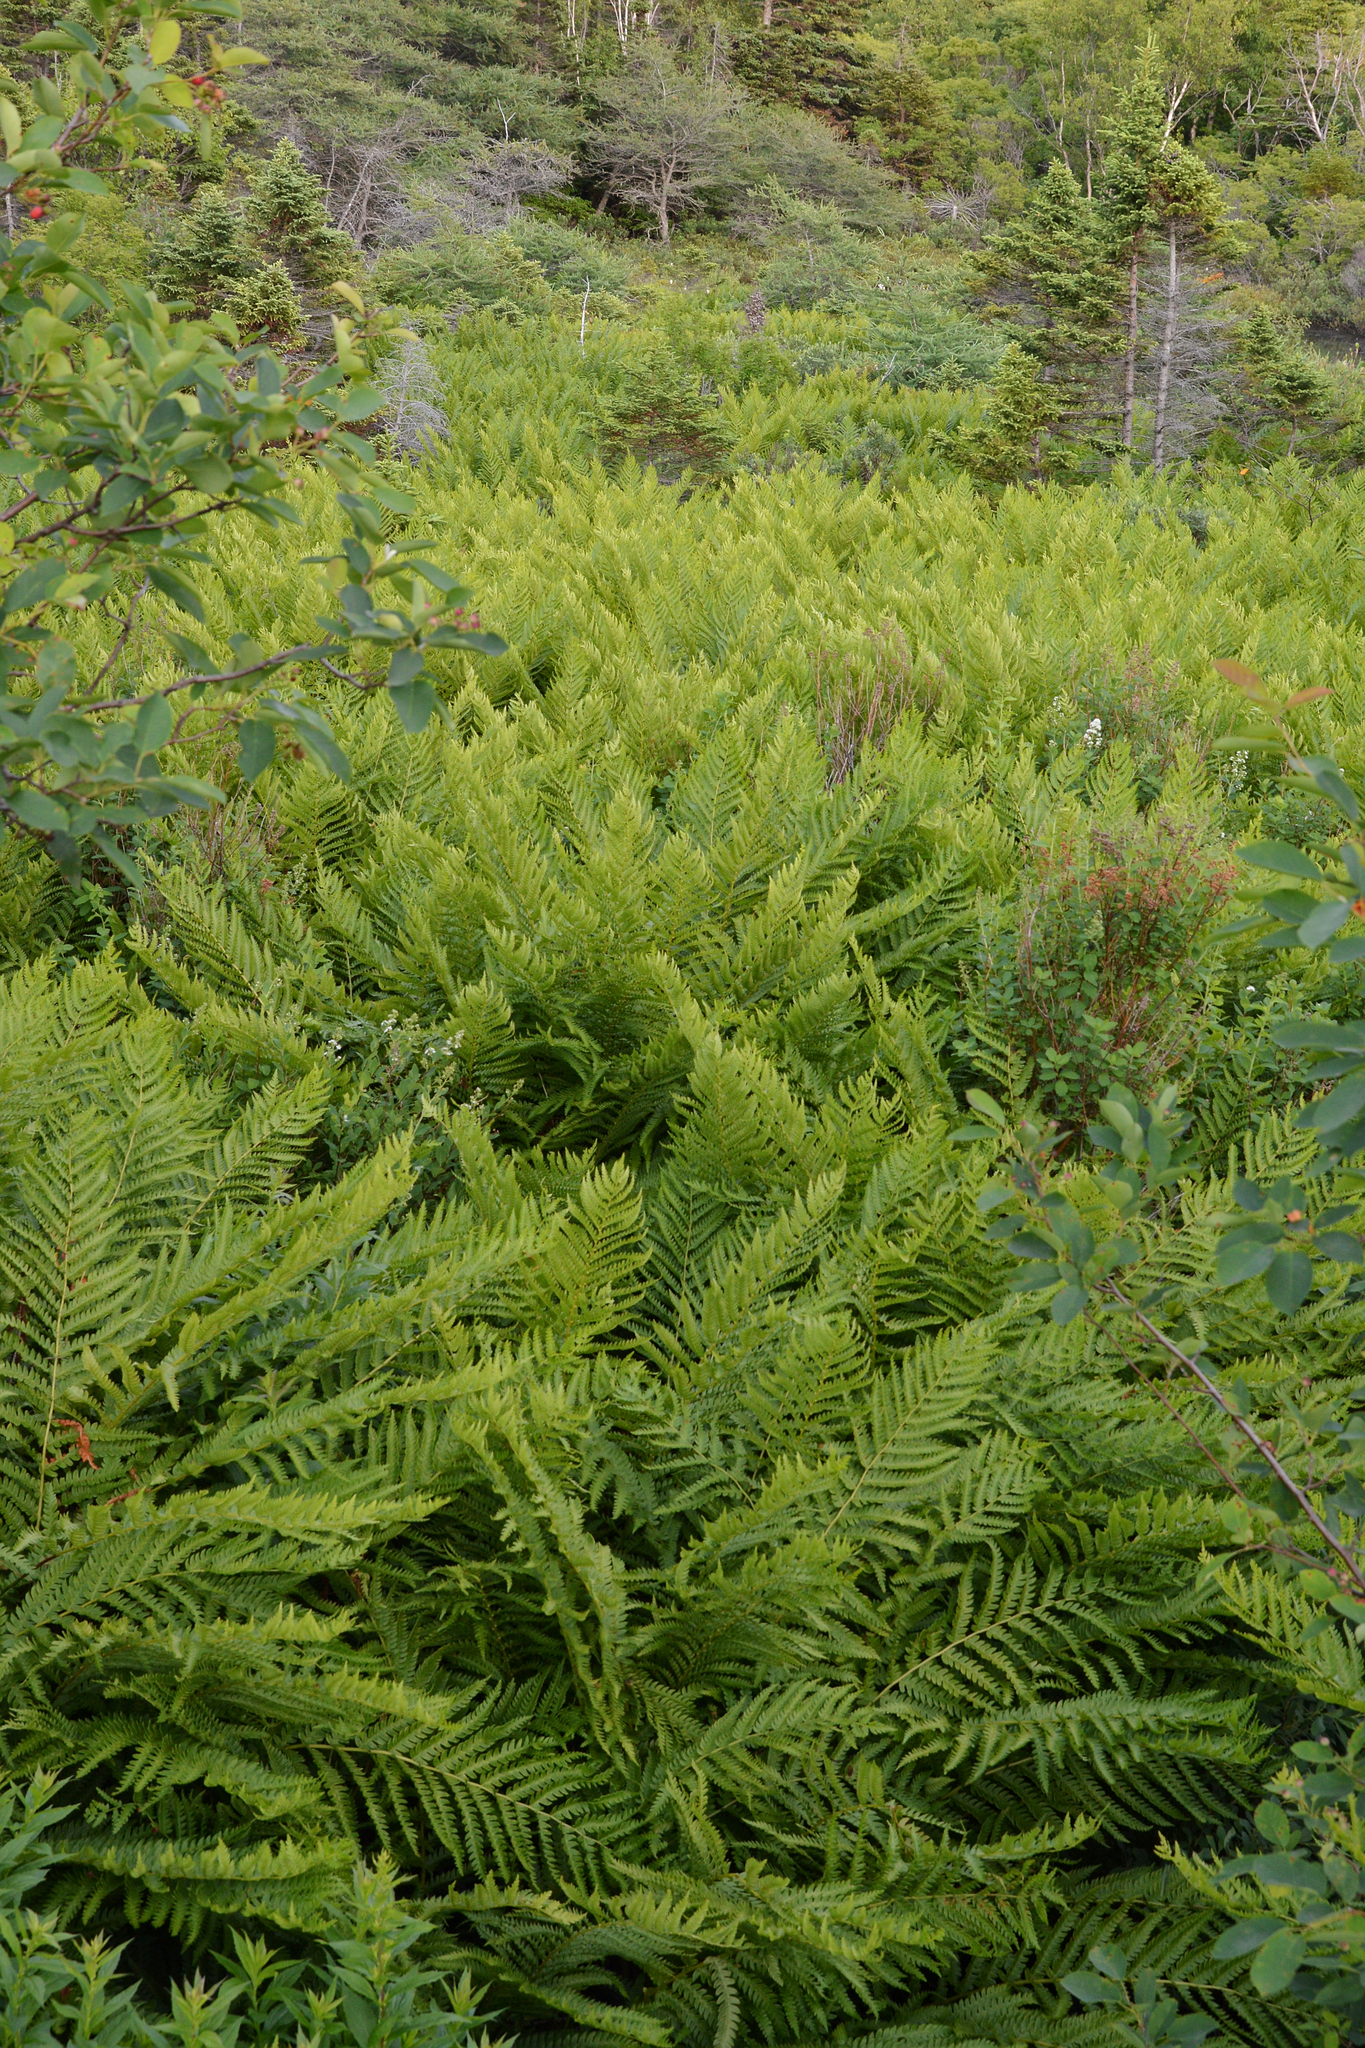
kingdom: Plantae
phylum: Tracheophyta
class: Polypodiopsida
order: Osmundales
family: Osmundaceae
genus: Osmundastrum
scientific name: Osmundastrum cinnamomeum
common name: Cinnamon fern
